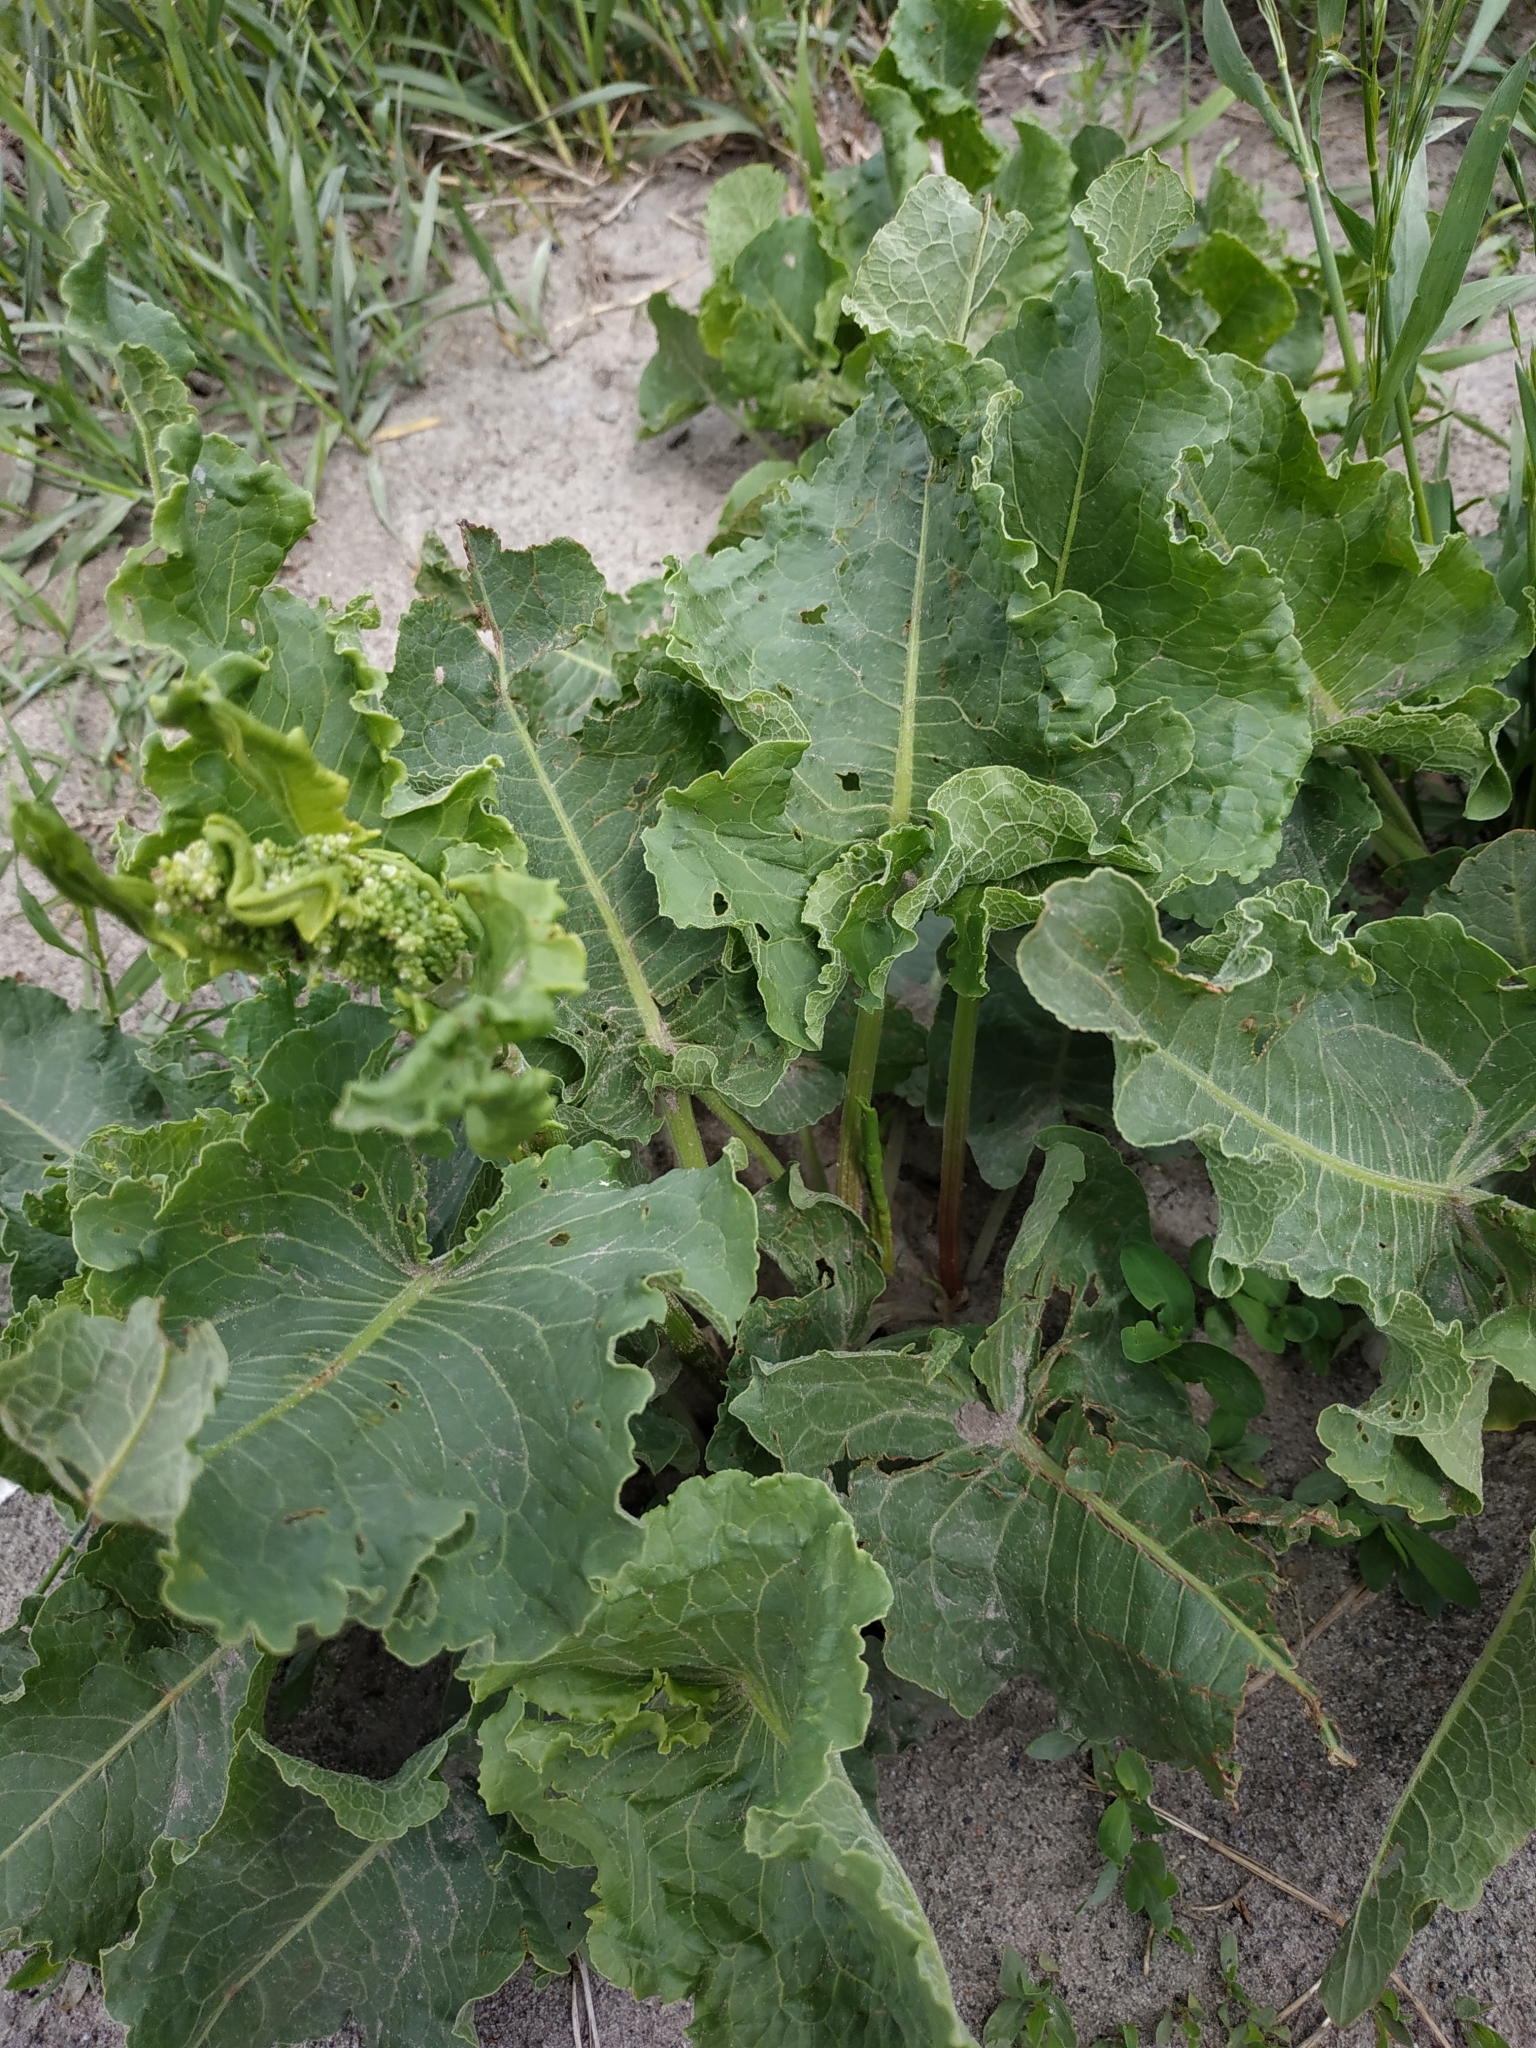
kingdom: Plantae
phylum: Tracheophyta
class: Magnoliopsida
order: Caryophyllales
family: Polygonaceae
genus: Rumex
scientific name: Rumex confertus
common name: Russian dock
